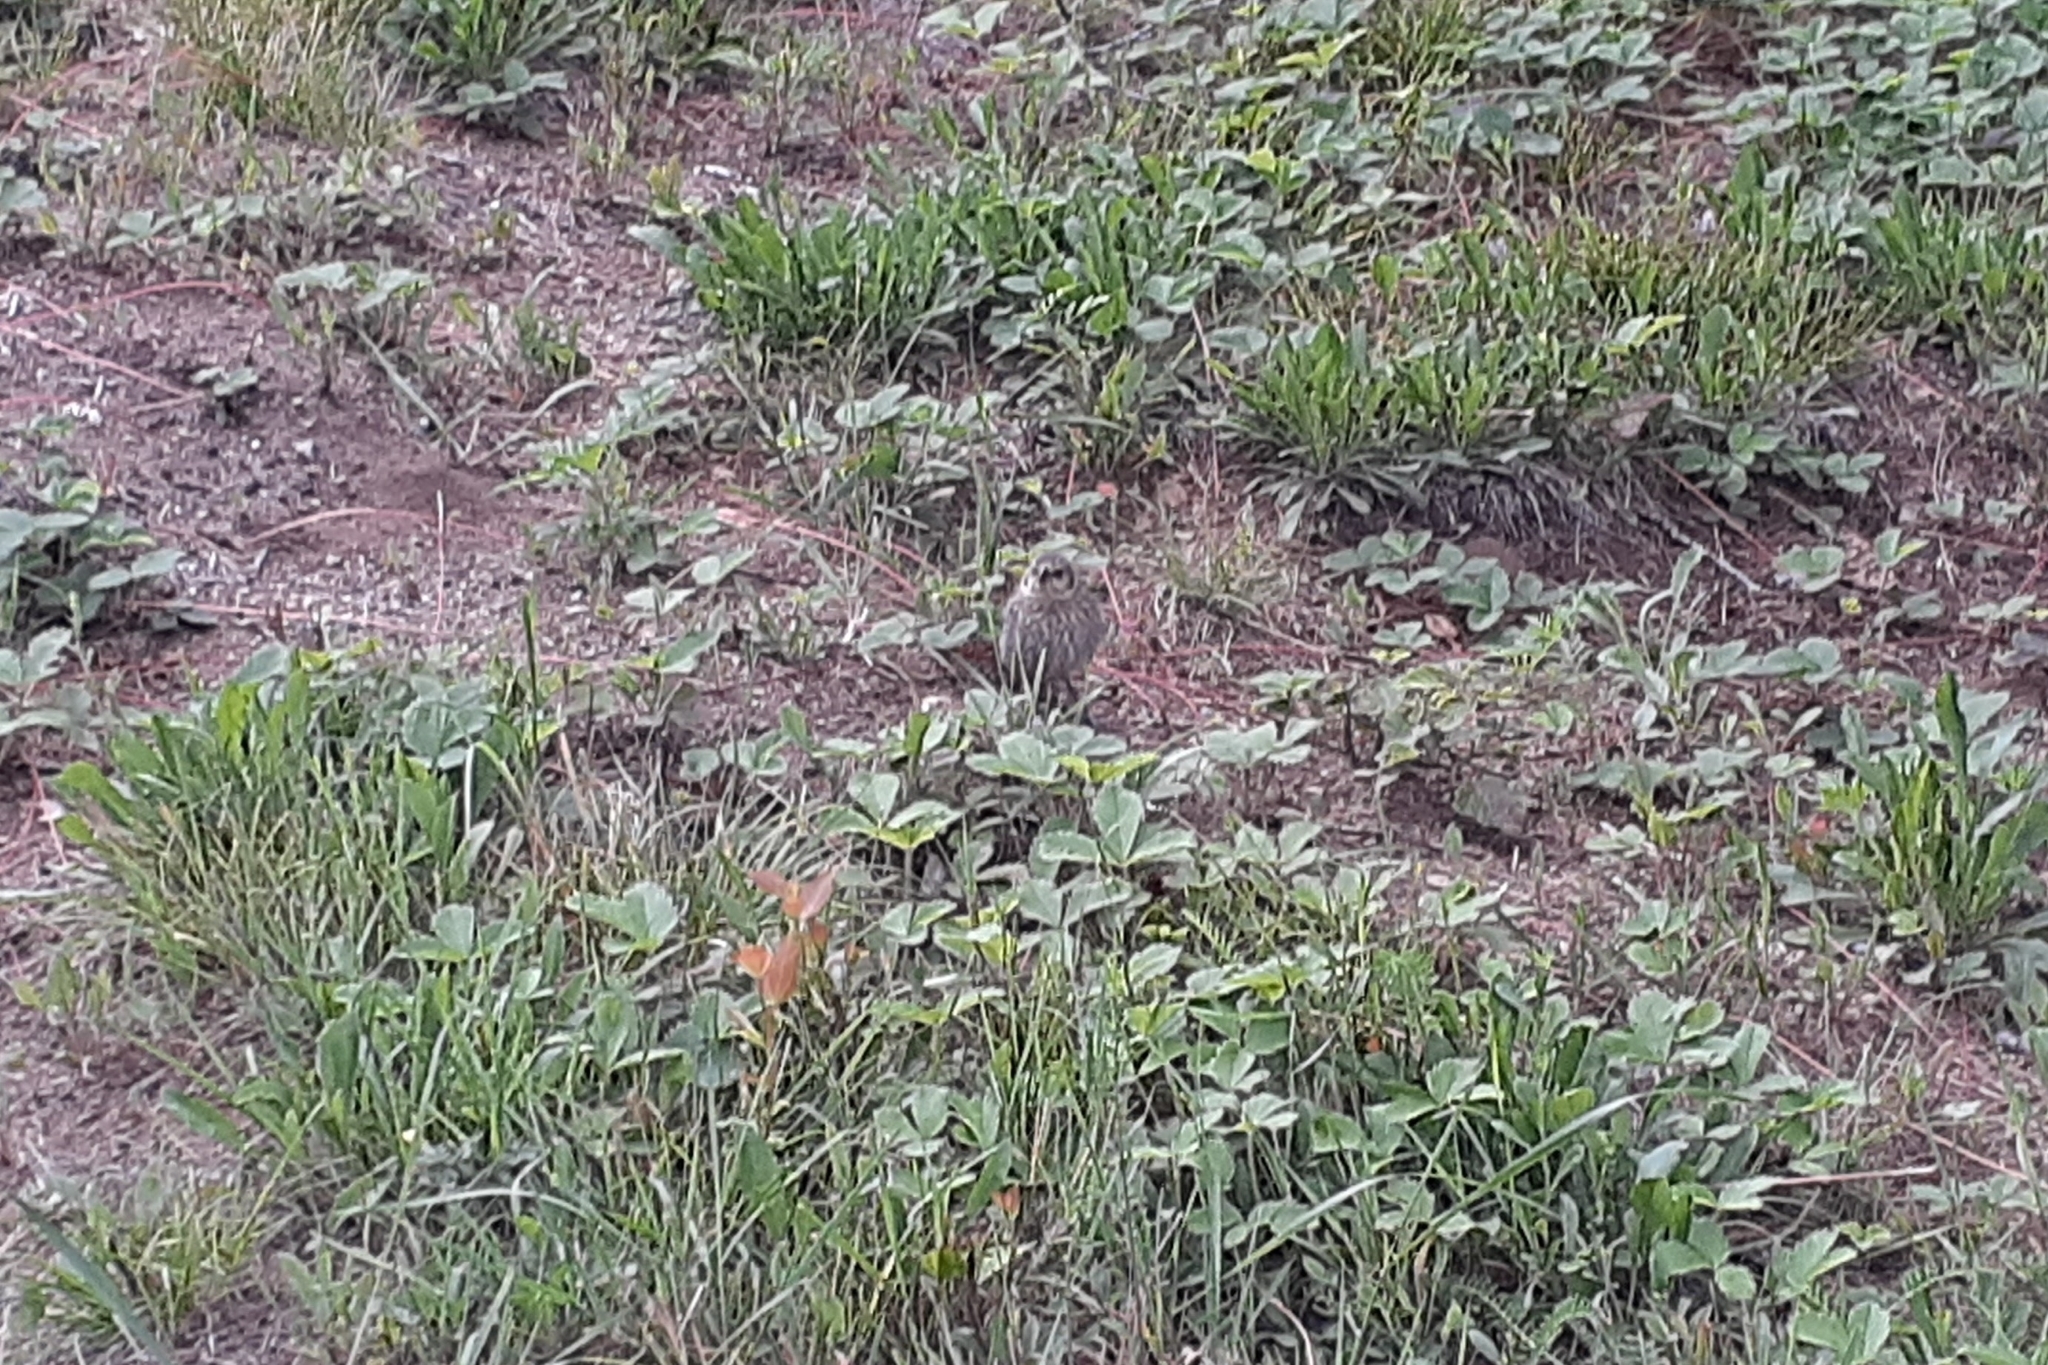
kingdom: Animalia
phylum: Chordata
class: Aves
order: Passeriformes
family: Icteridae
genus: Molothrus
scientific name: Molothrus ater
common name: Brown-headed cowbird
